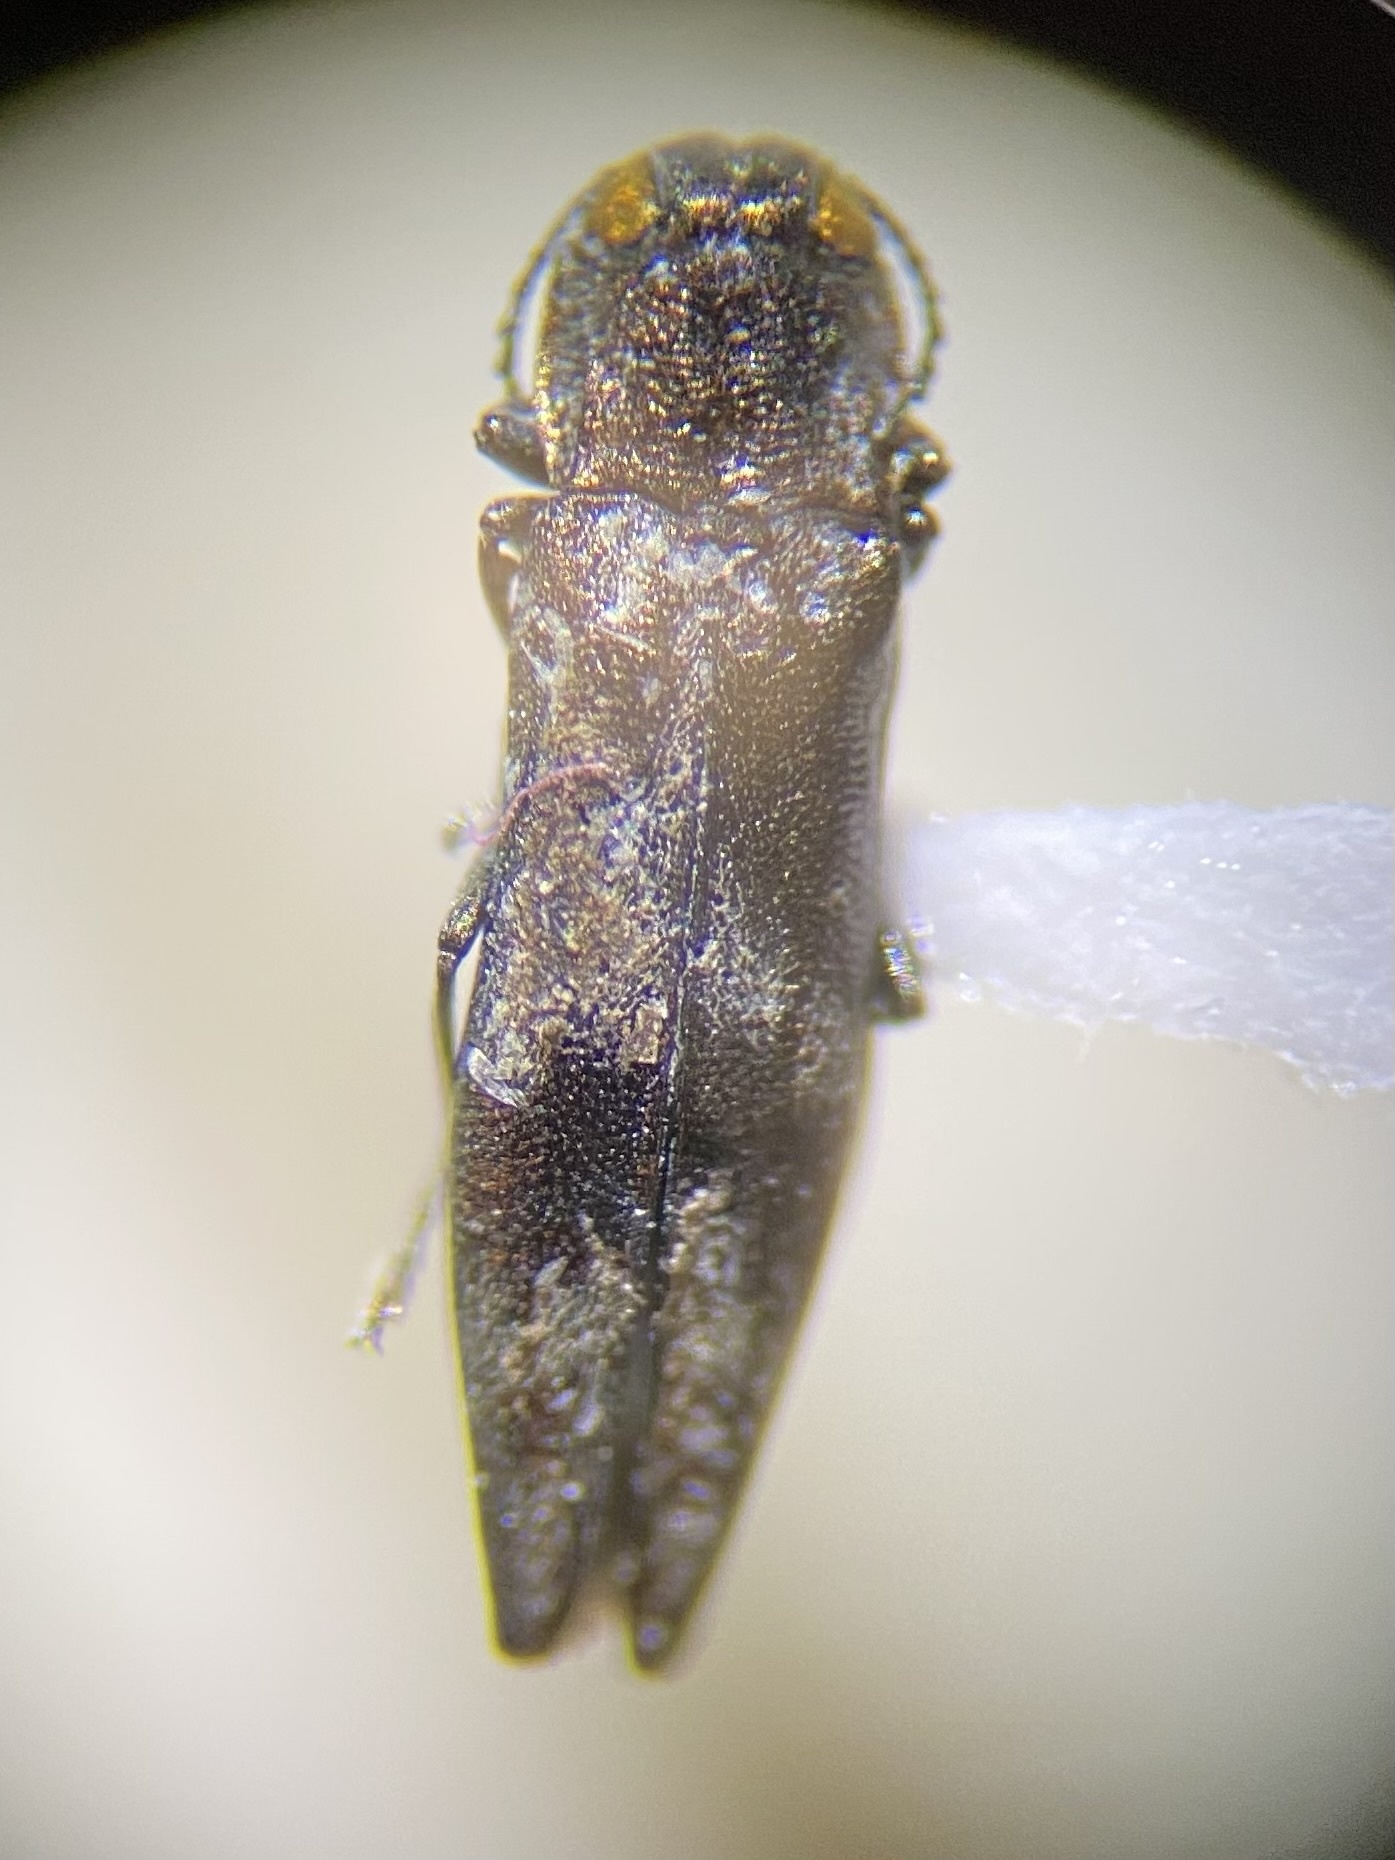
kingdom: Animalia
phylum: Arthropoda
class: Insecta
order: Coleoptera
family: Buprestidae
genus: Agrilus
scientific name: Agrilus lecontei
